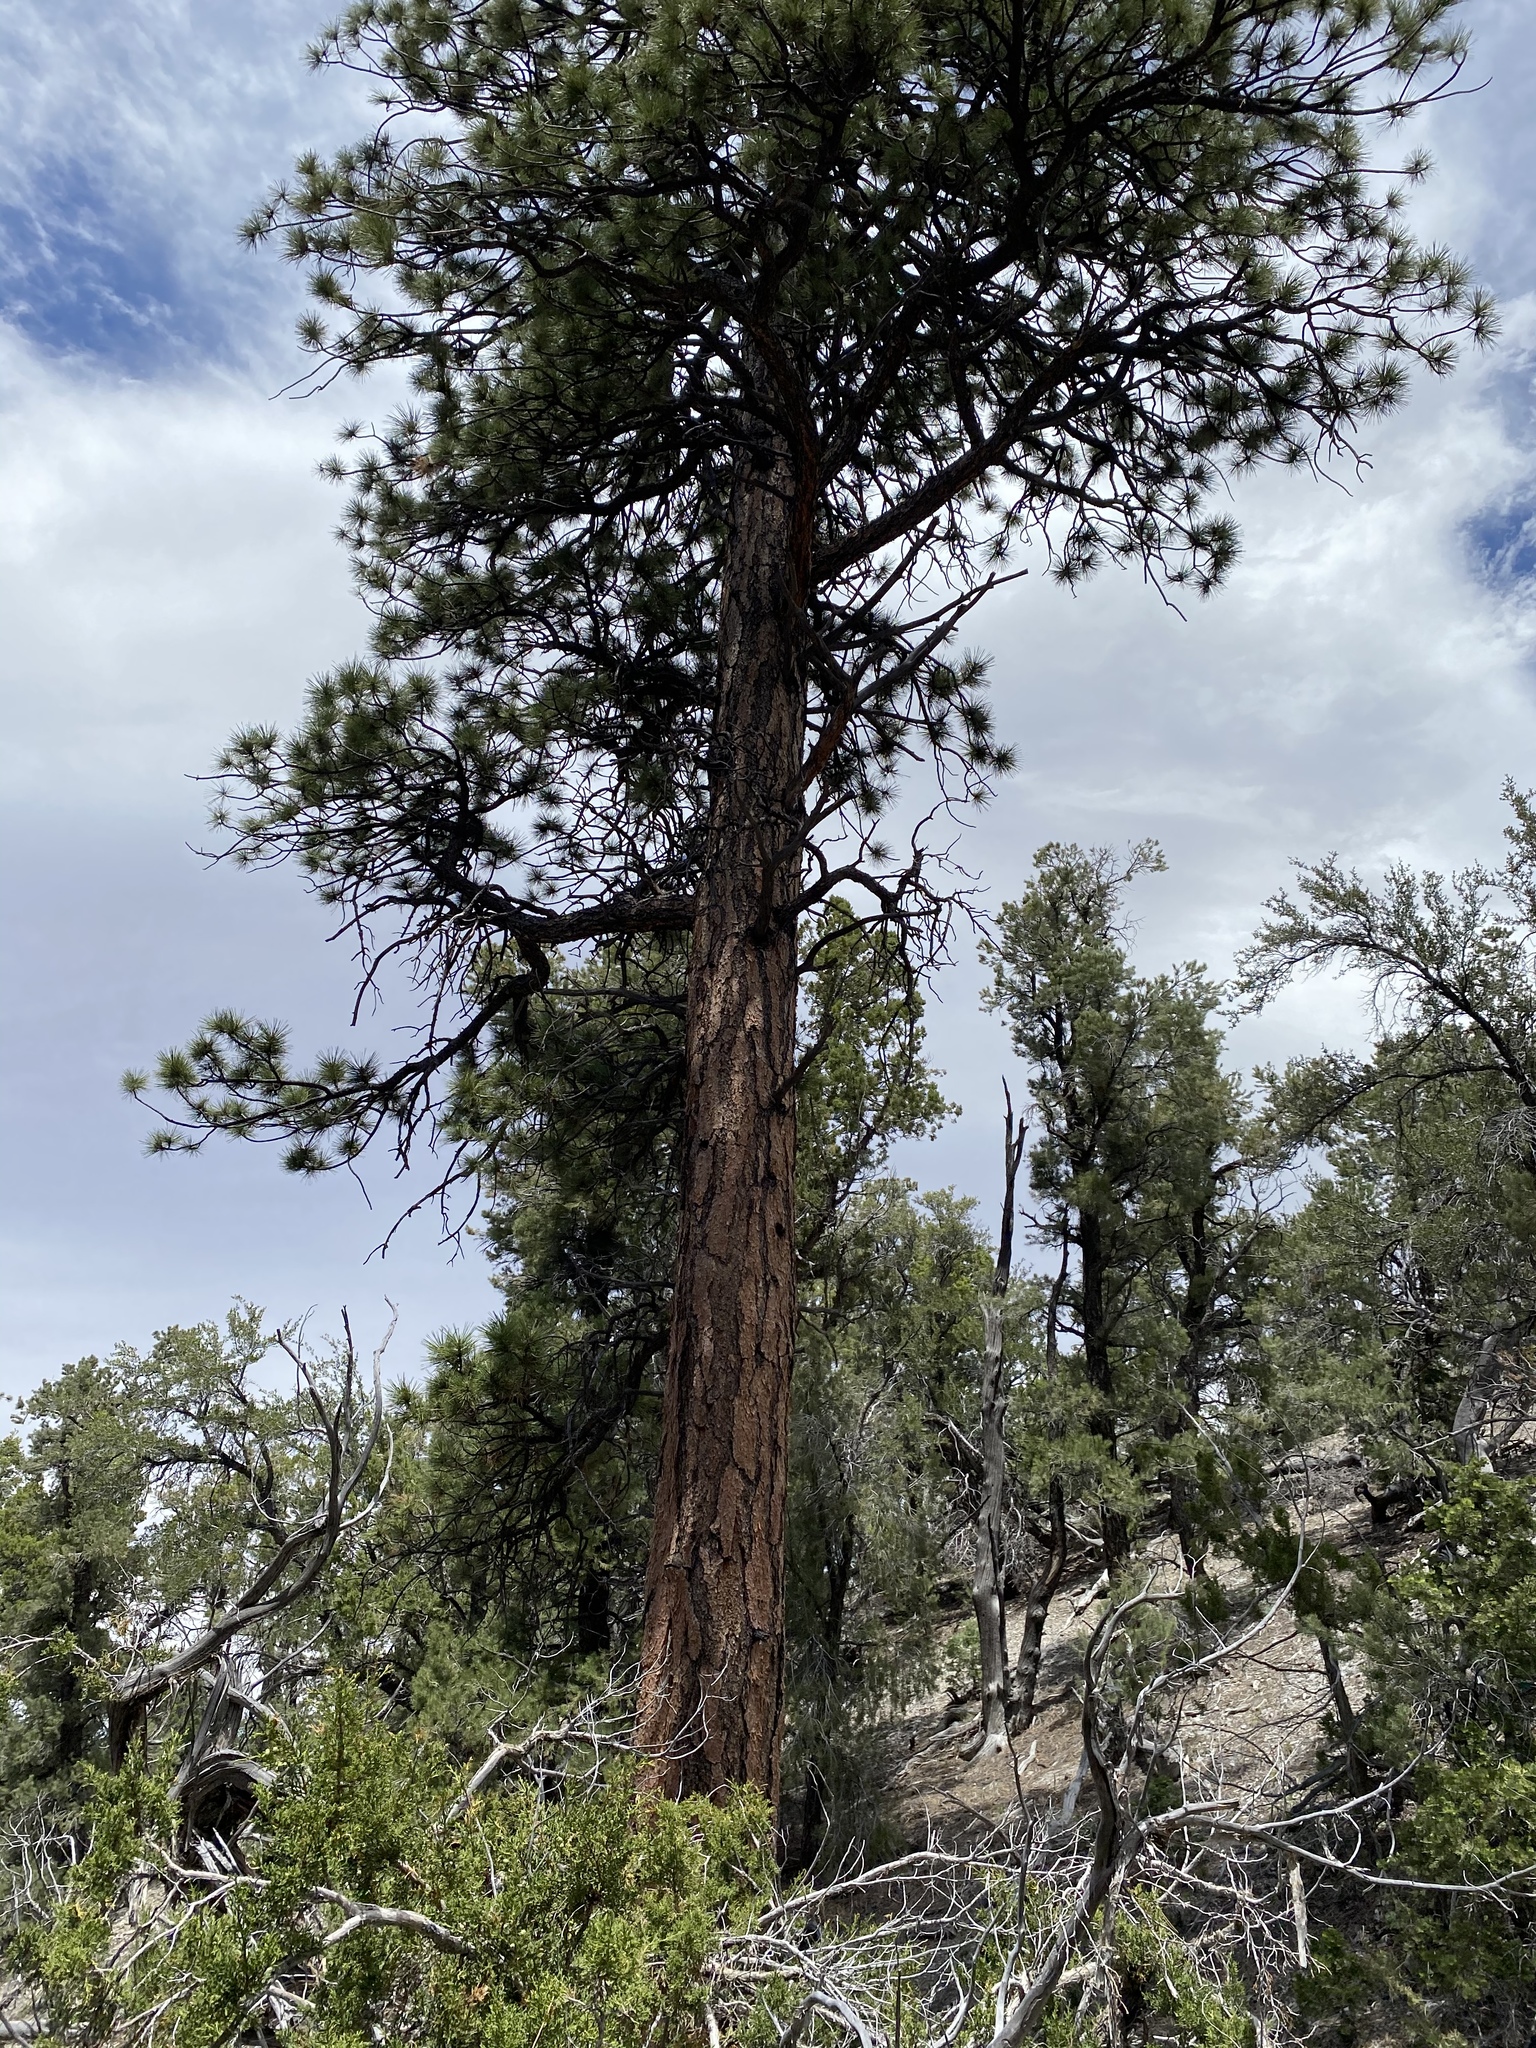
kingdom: Plantae
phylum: Tracheophyta
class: Pinopsida
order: Pinales
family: Pinaceae
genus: Pinus
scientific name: Pinus ponderosa
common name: Western yellow-pine
